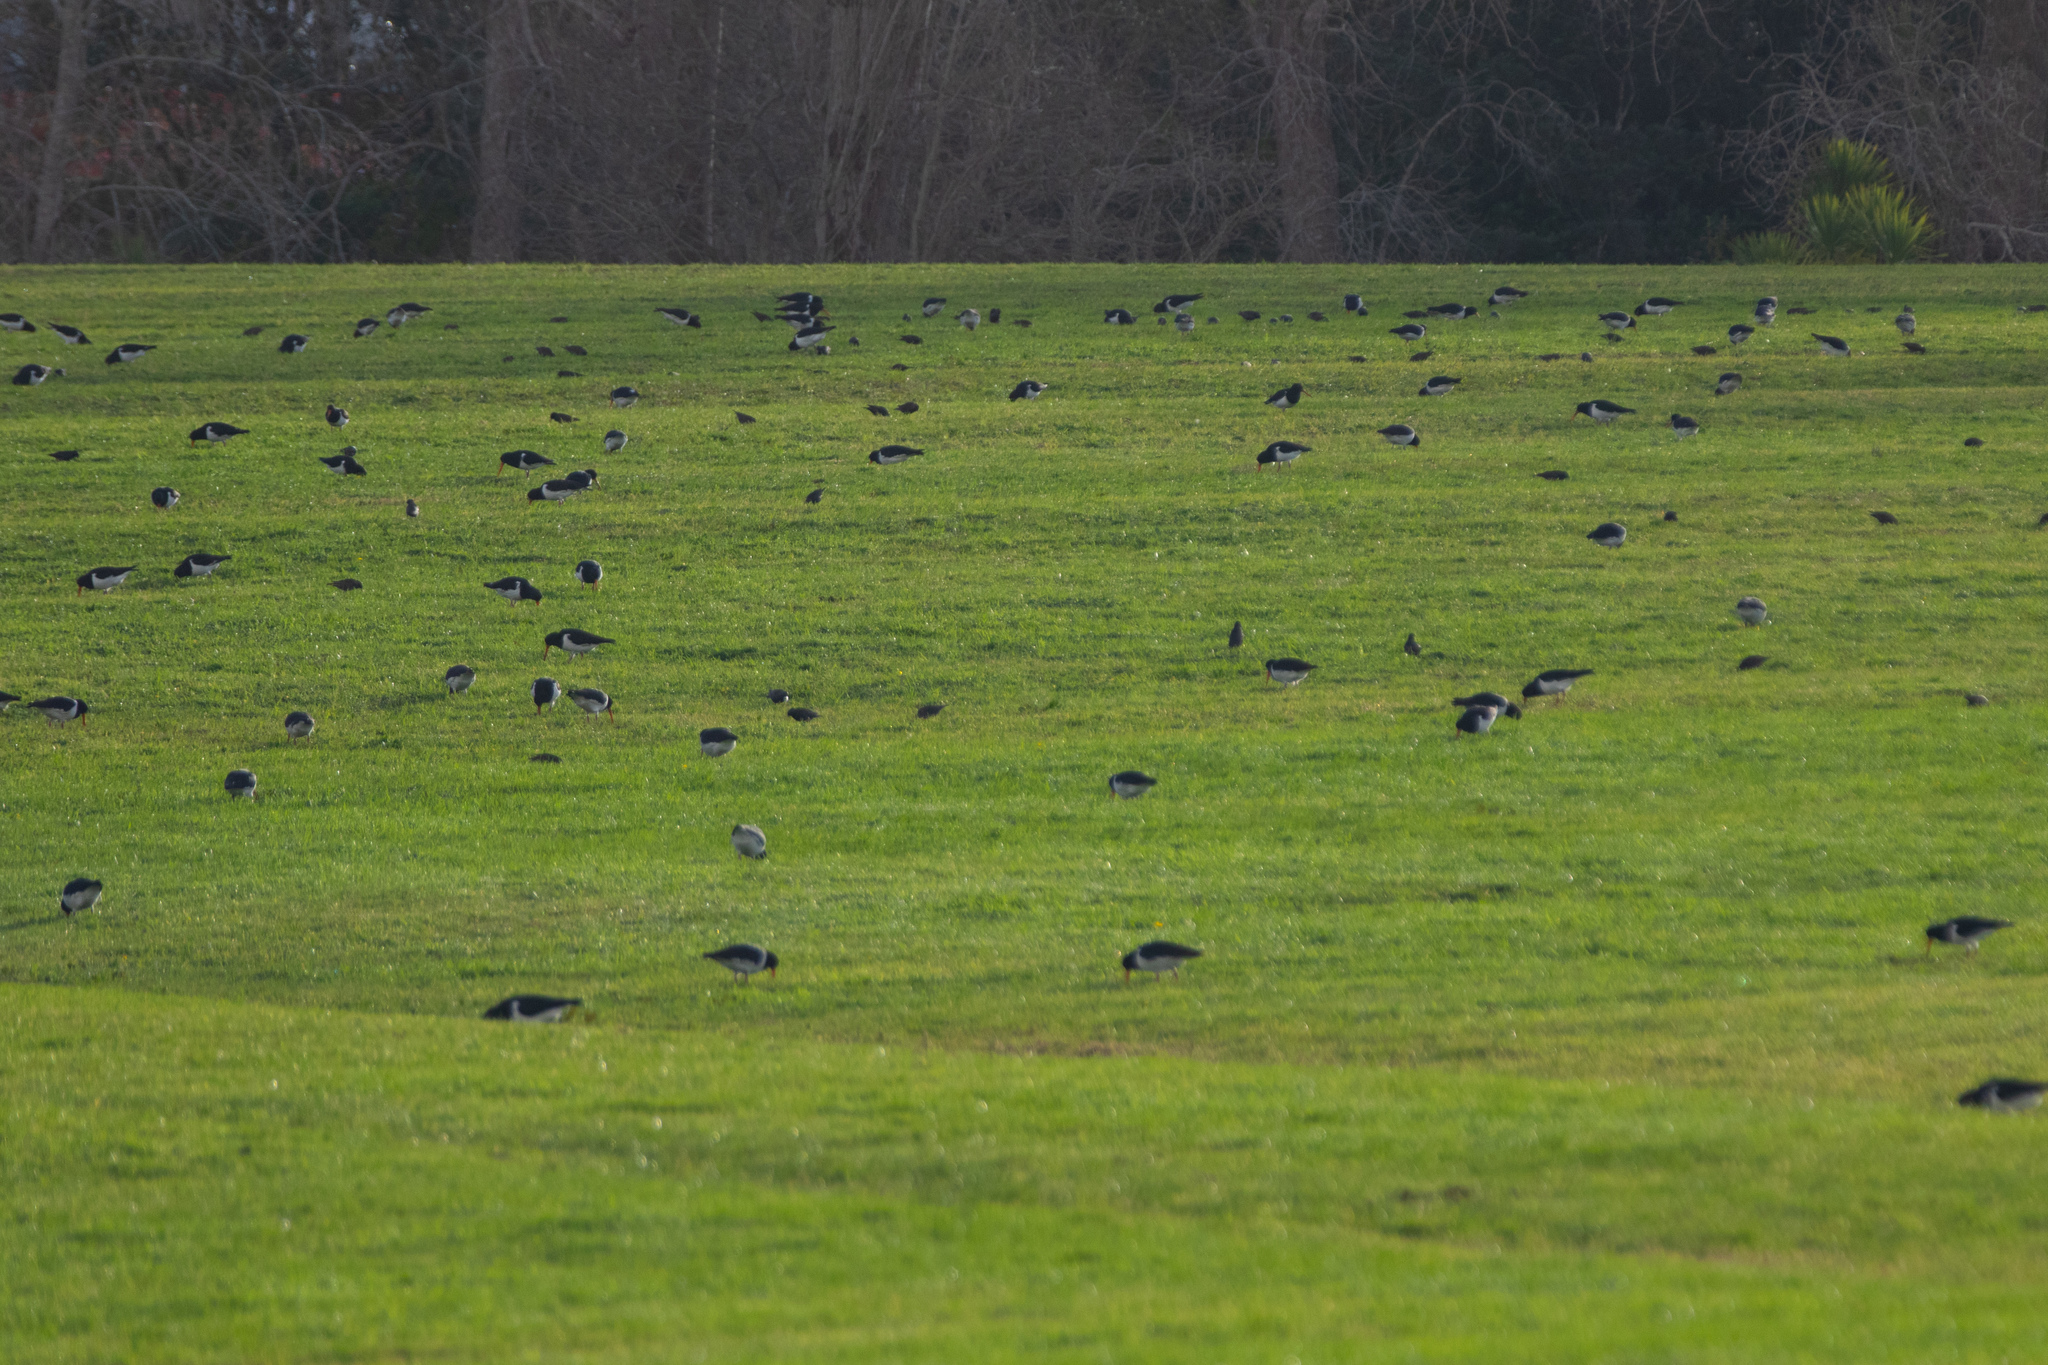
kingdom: Animalia
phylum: Chordata
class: Aves
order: Charadriiformes
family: Haematopodidae
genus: Haematopus
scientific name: Haematopus finschi
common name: South island oystercatcher
